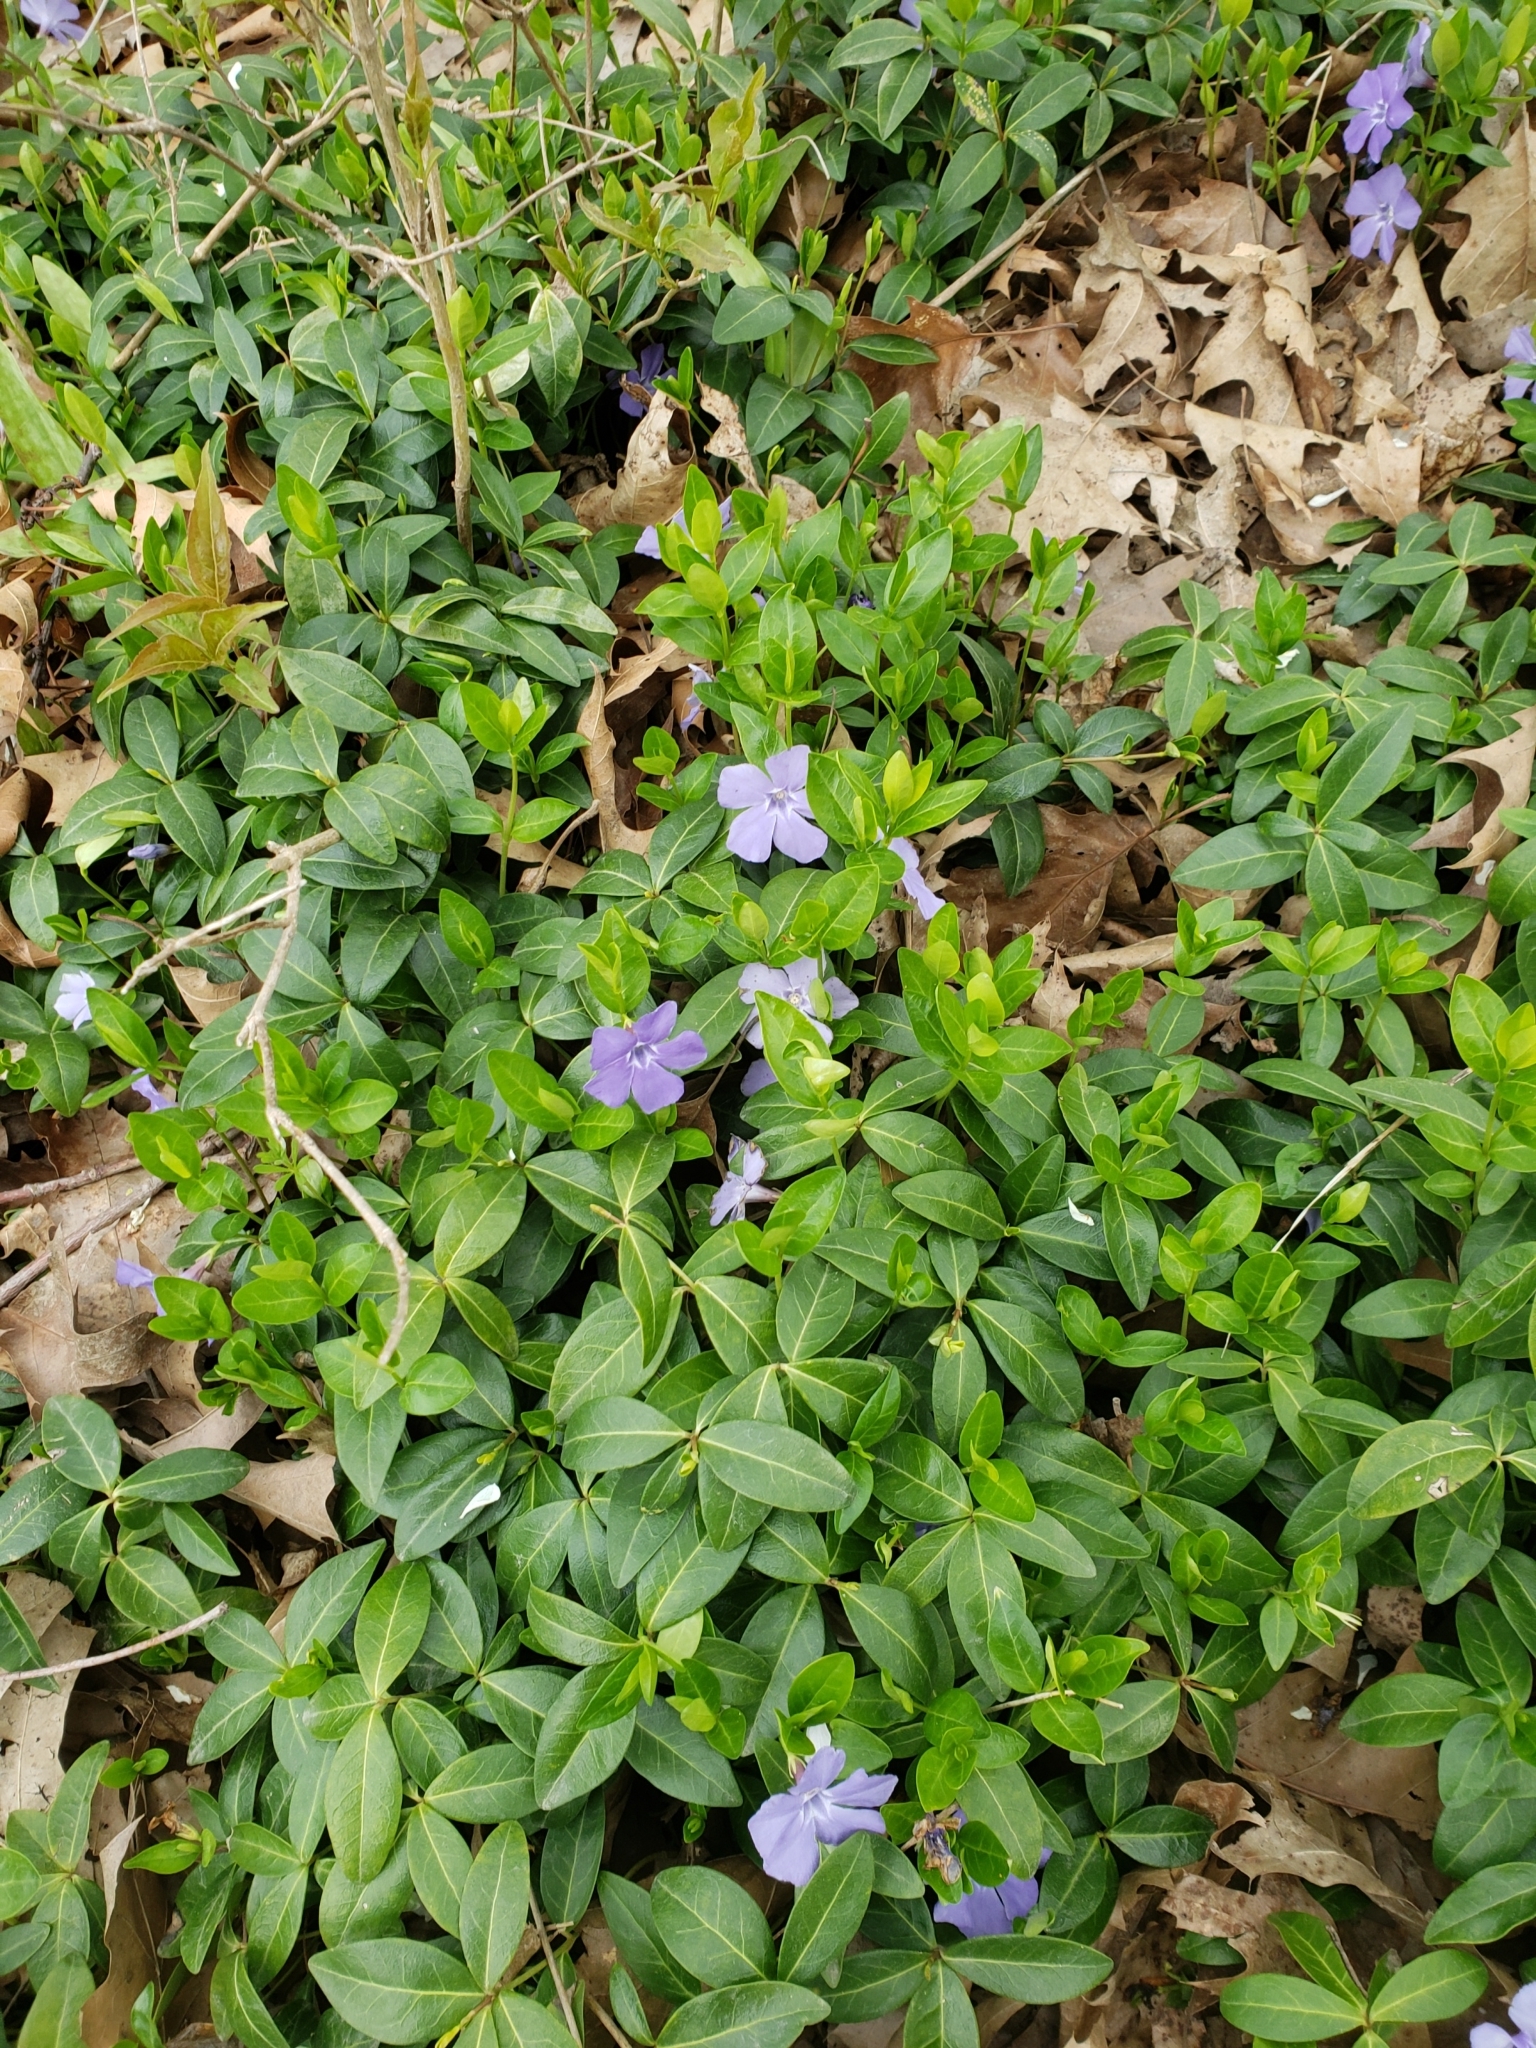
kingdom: Plantae
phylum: Tracheophyta
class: Magnoliopsida
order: Gentianales
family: Apocynaceae
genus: Vinca
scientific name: Vinca minor
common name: Lesser periwinkle
